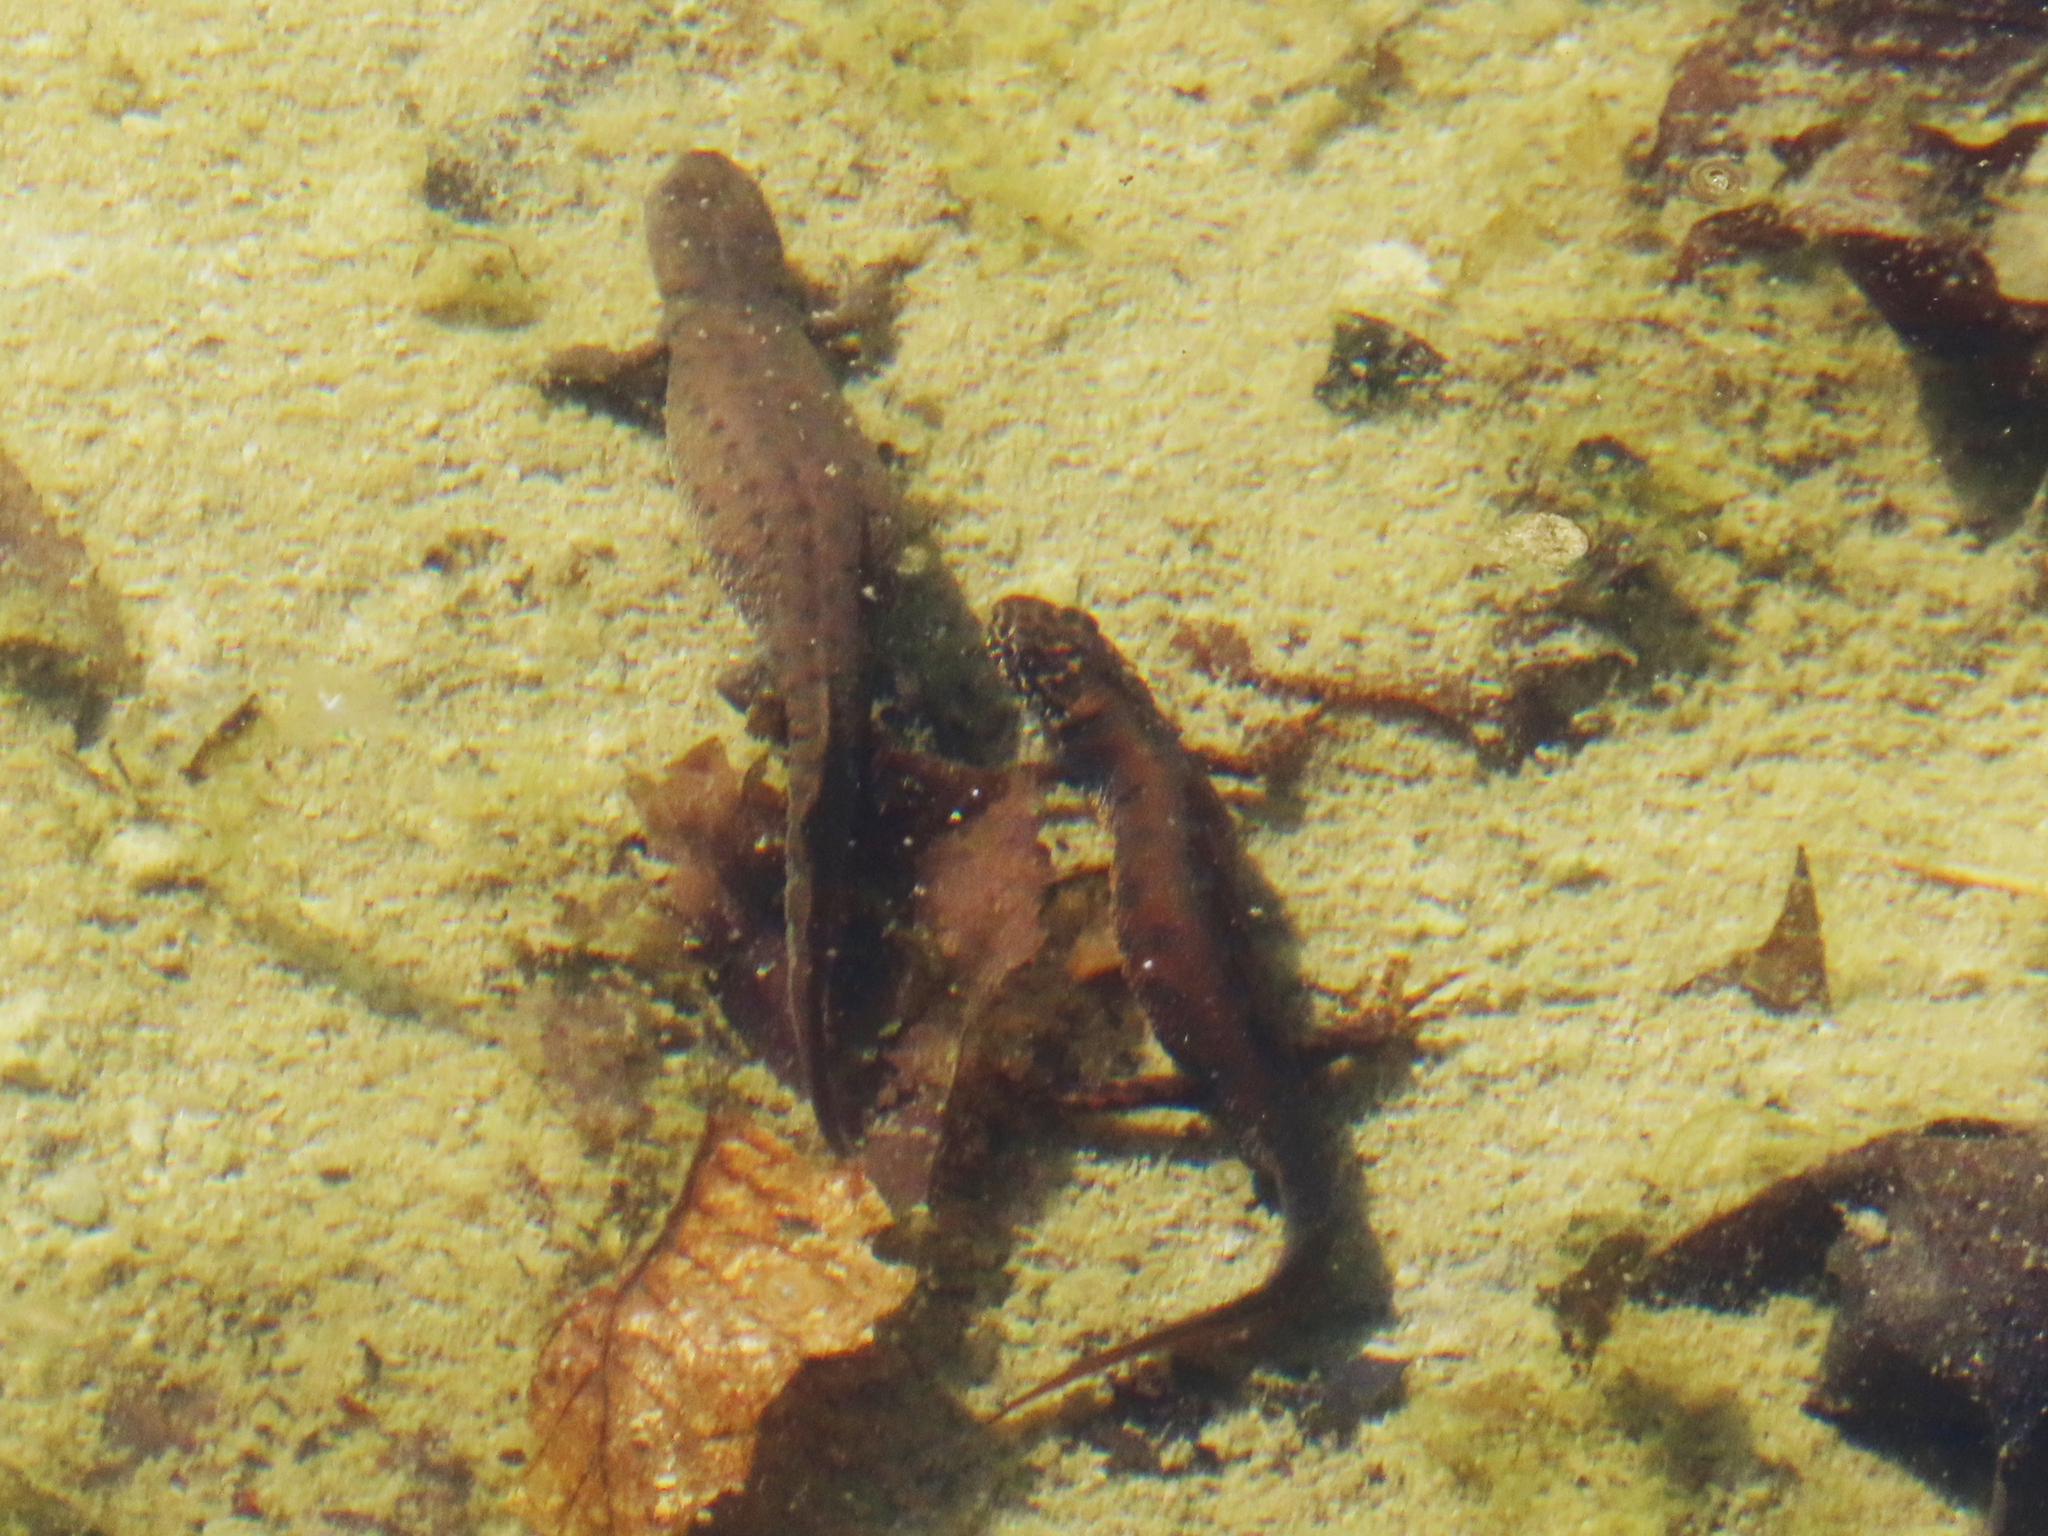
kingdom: Animalia
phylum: Chordata
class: Amphibia
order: Caudata
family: Salamandridae
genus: Triturus
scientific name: Triturus cristatus
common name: Crested newt
